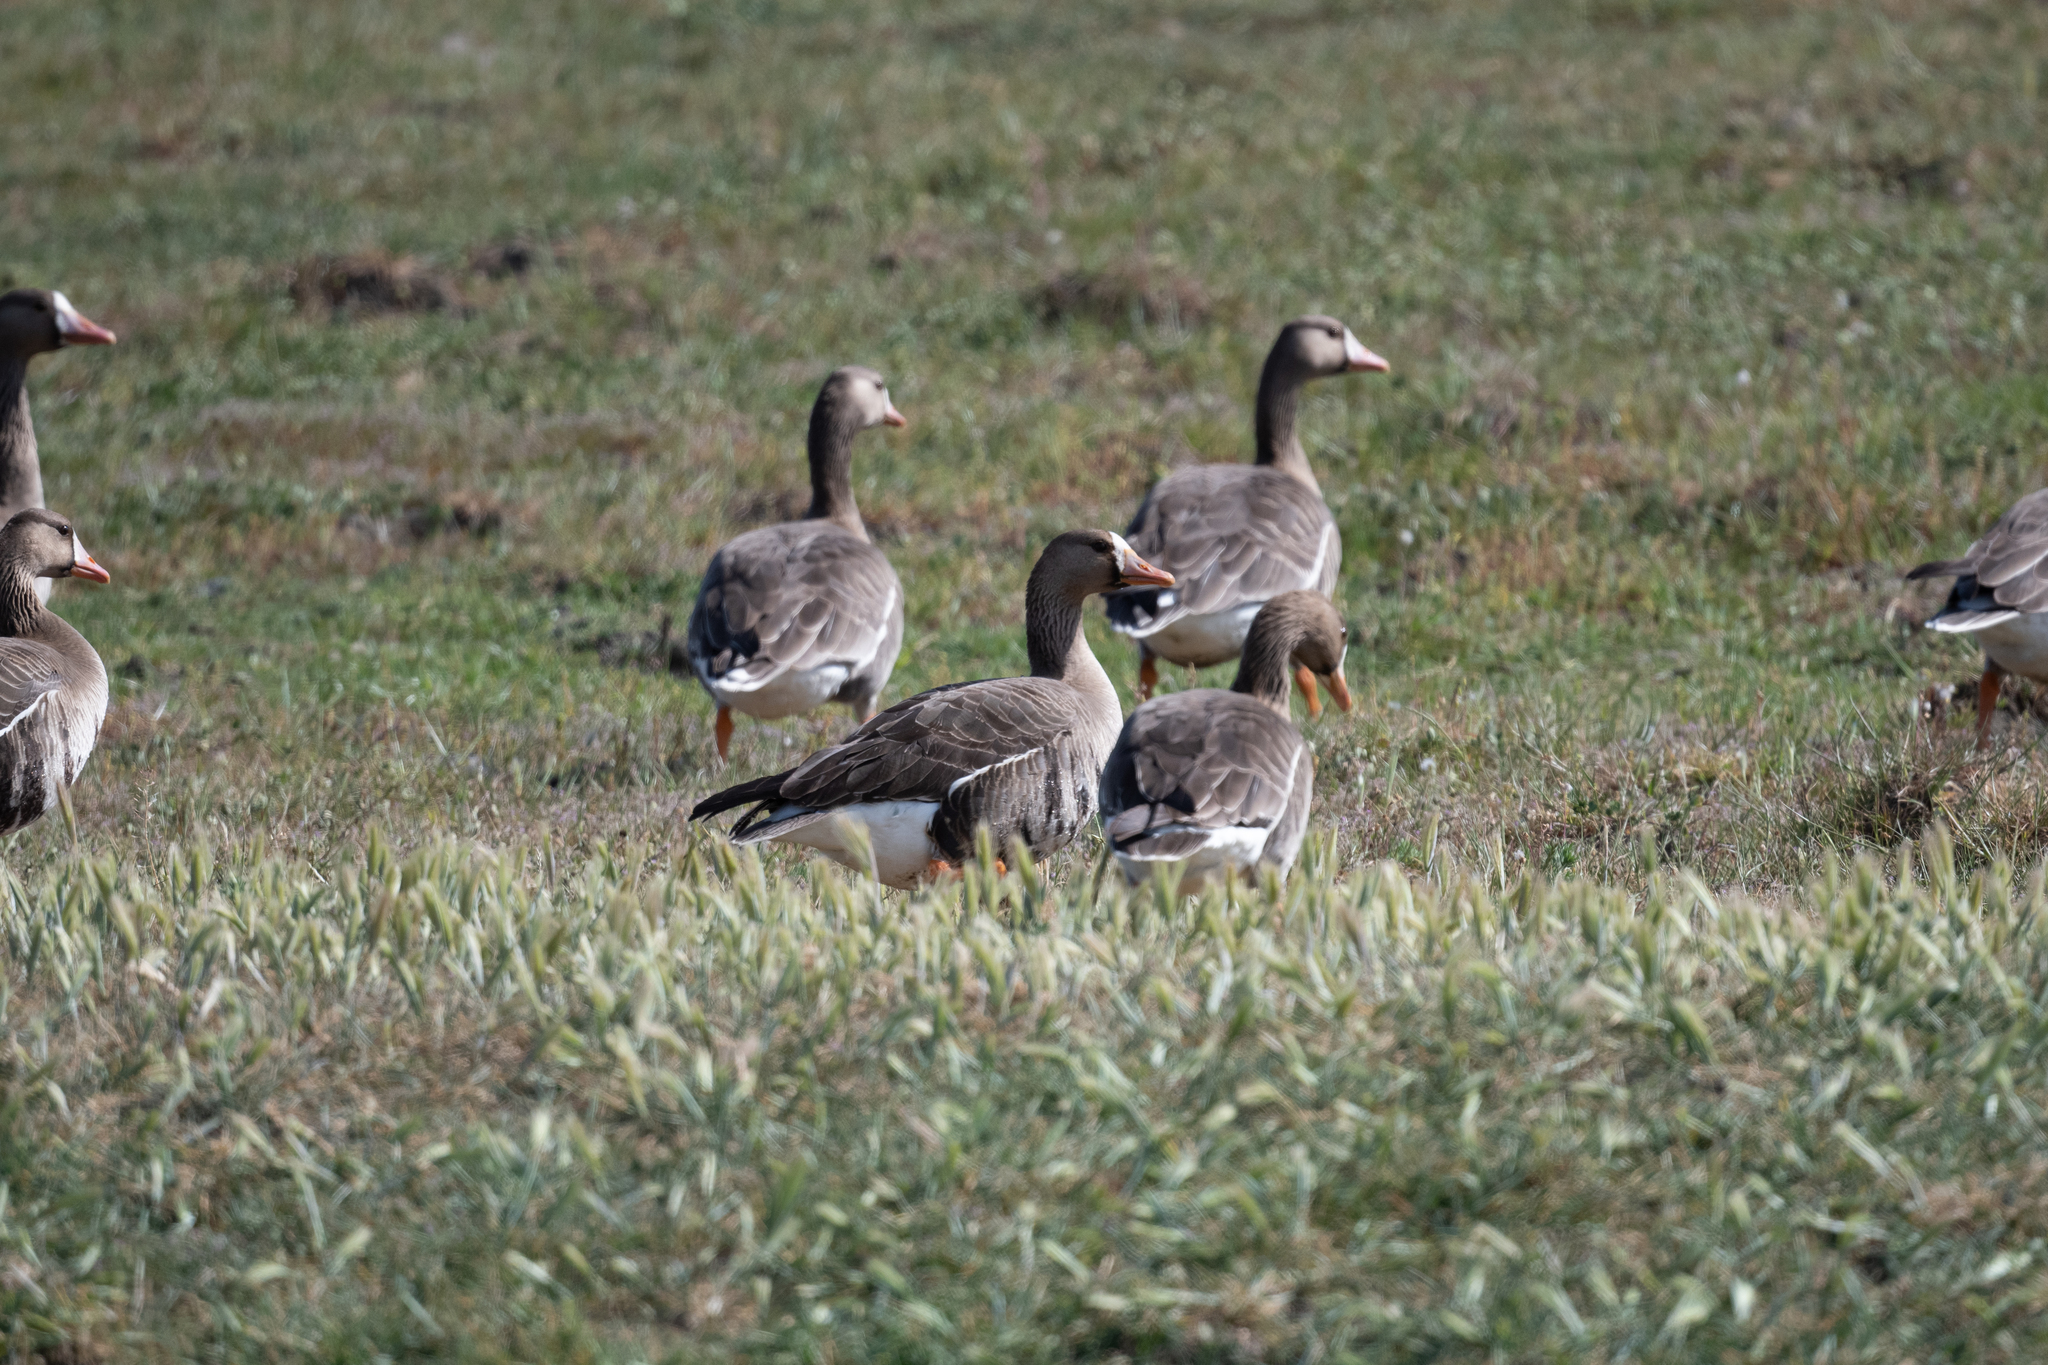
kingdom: Animalia
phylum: Chordata
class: Aves
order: Anseriformes
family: Anatidae
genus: Anser
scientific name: Anser albifrons
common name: Greater white-fronted goose
